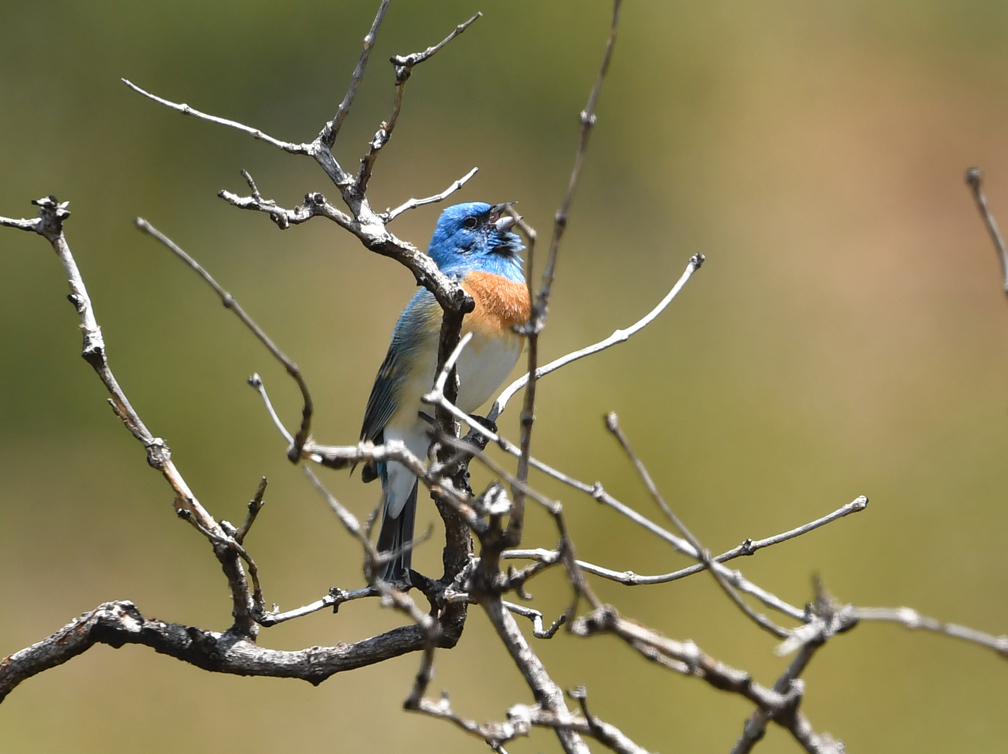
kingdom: Animalia
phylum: Chordata
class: Aves
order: Passeriformes
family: Cardinalidae
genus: Passerina
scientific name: Passerina amoena
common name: Lazuli bunting
